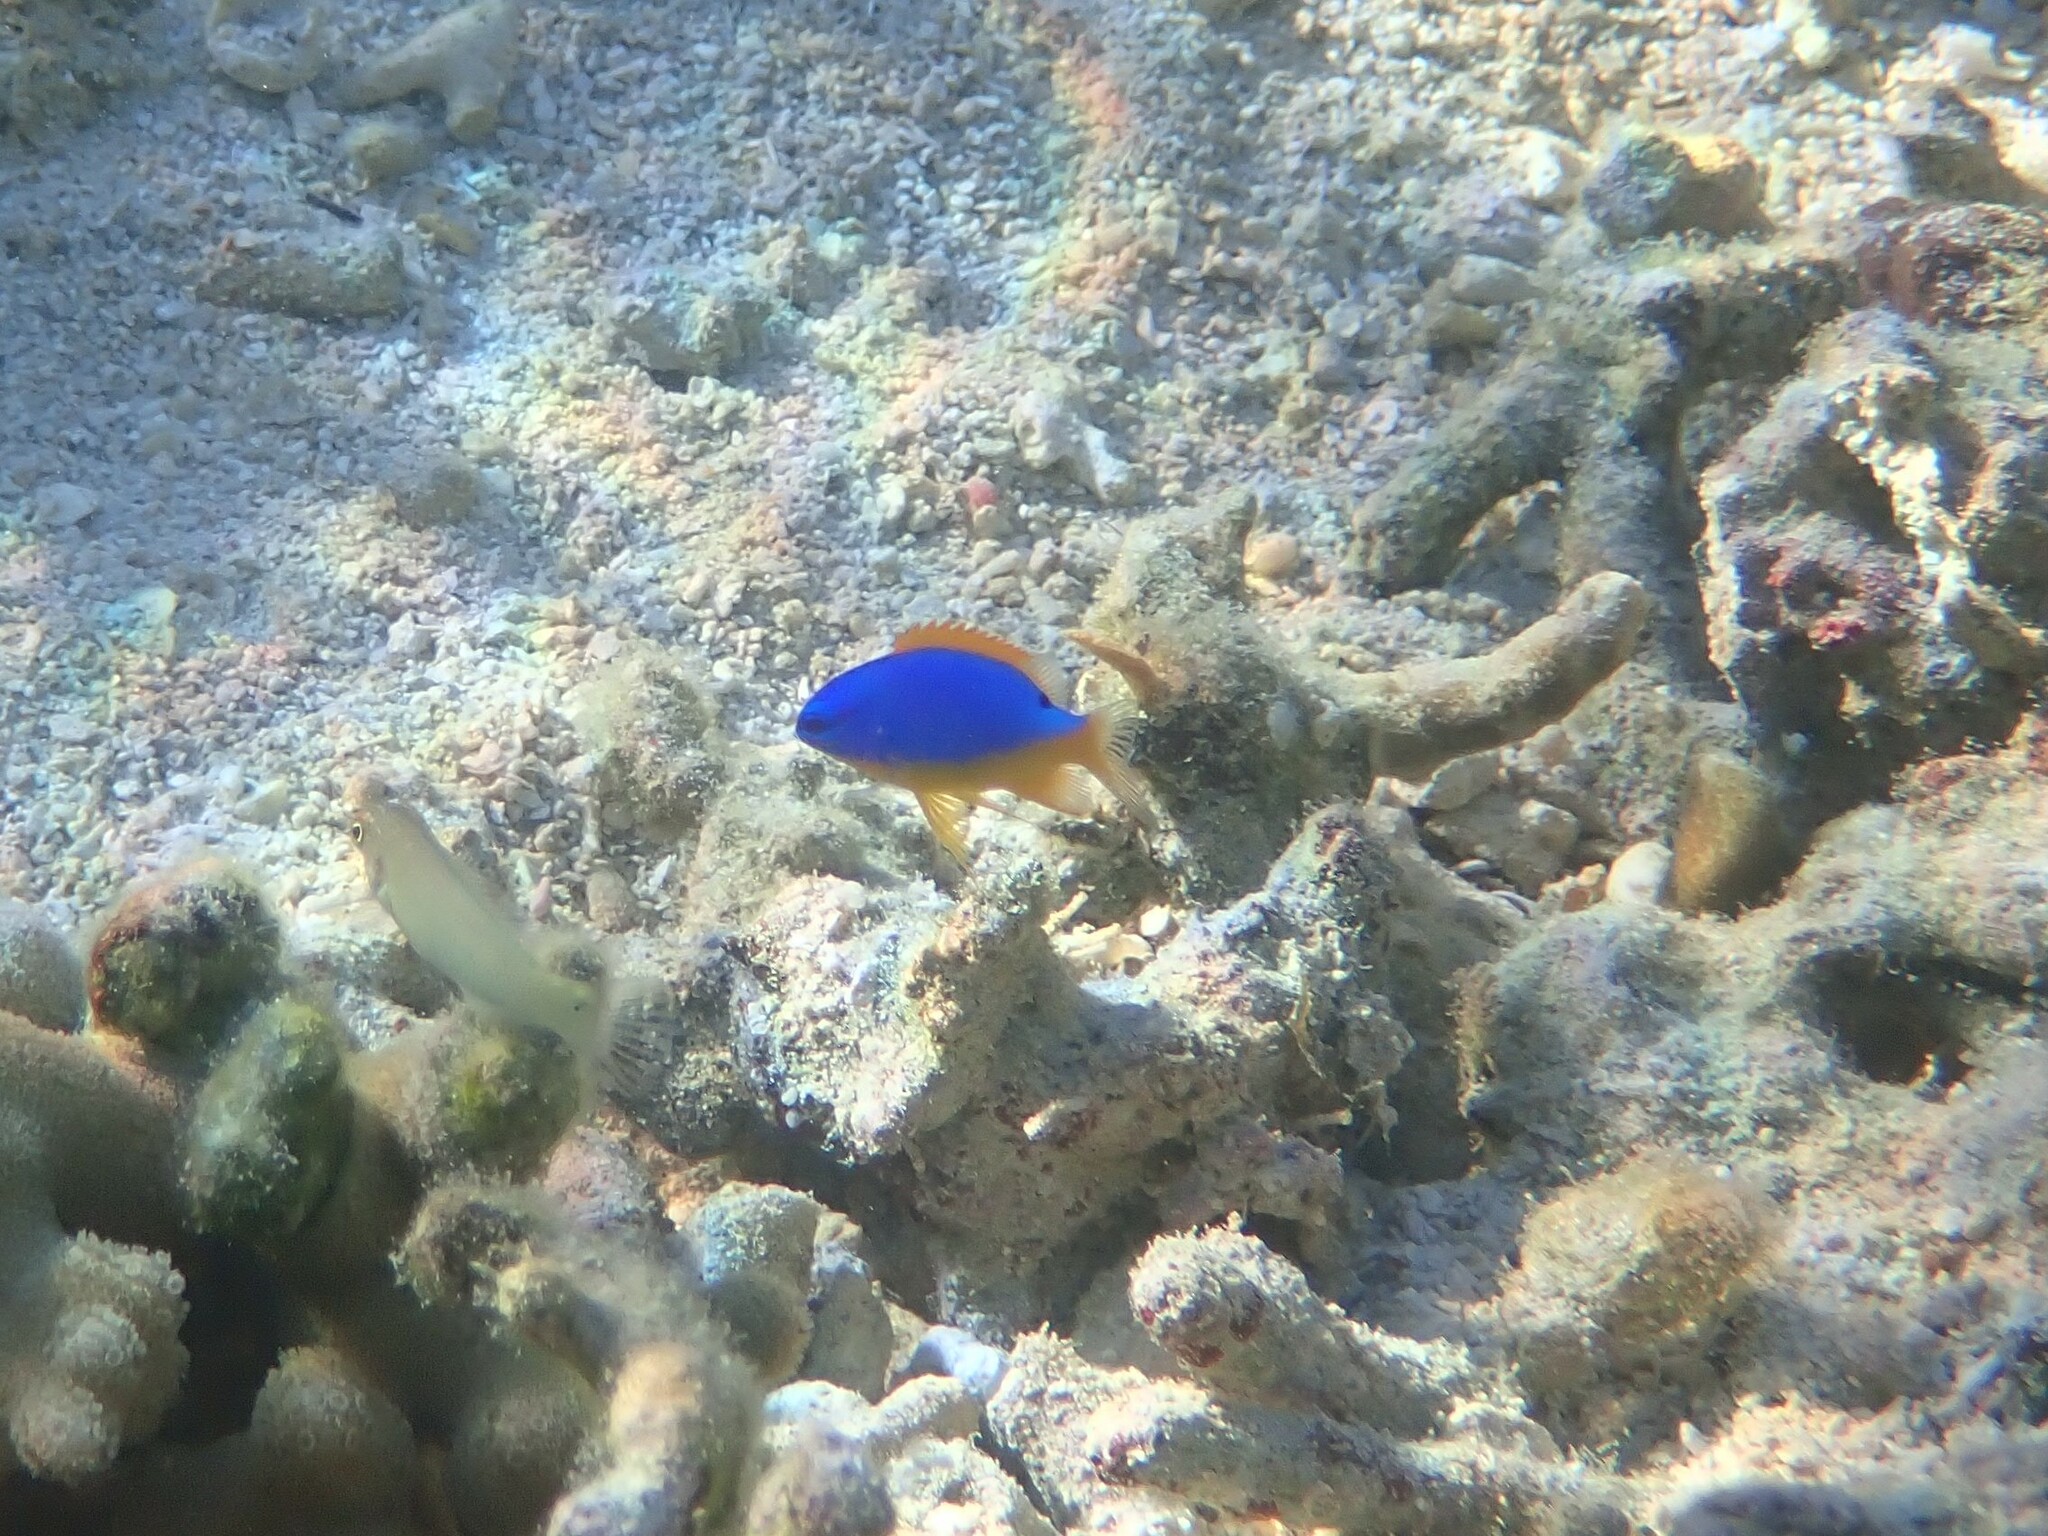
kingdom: Animalia
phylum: Chordata
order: Perciformes
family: Pomacentridae
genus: Chrysiptera
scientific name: Chrysiptera taupou
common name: Fiji damsel
